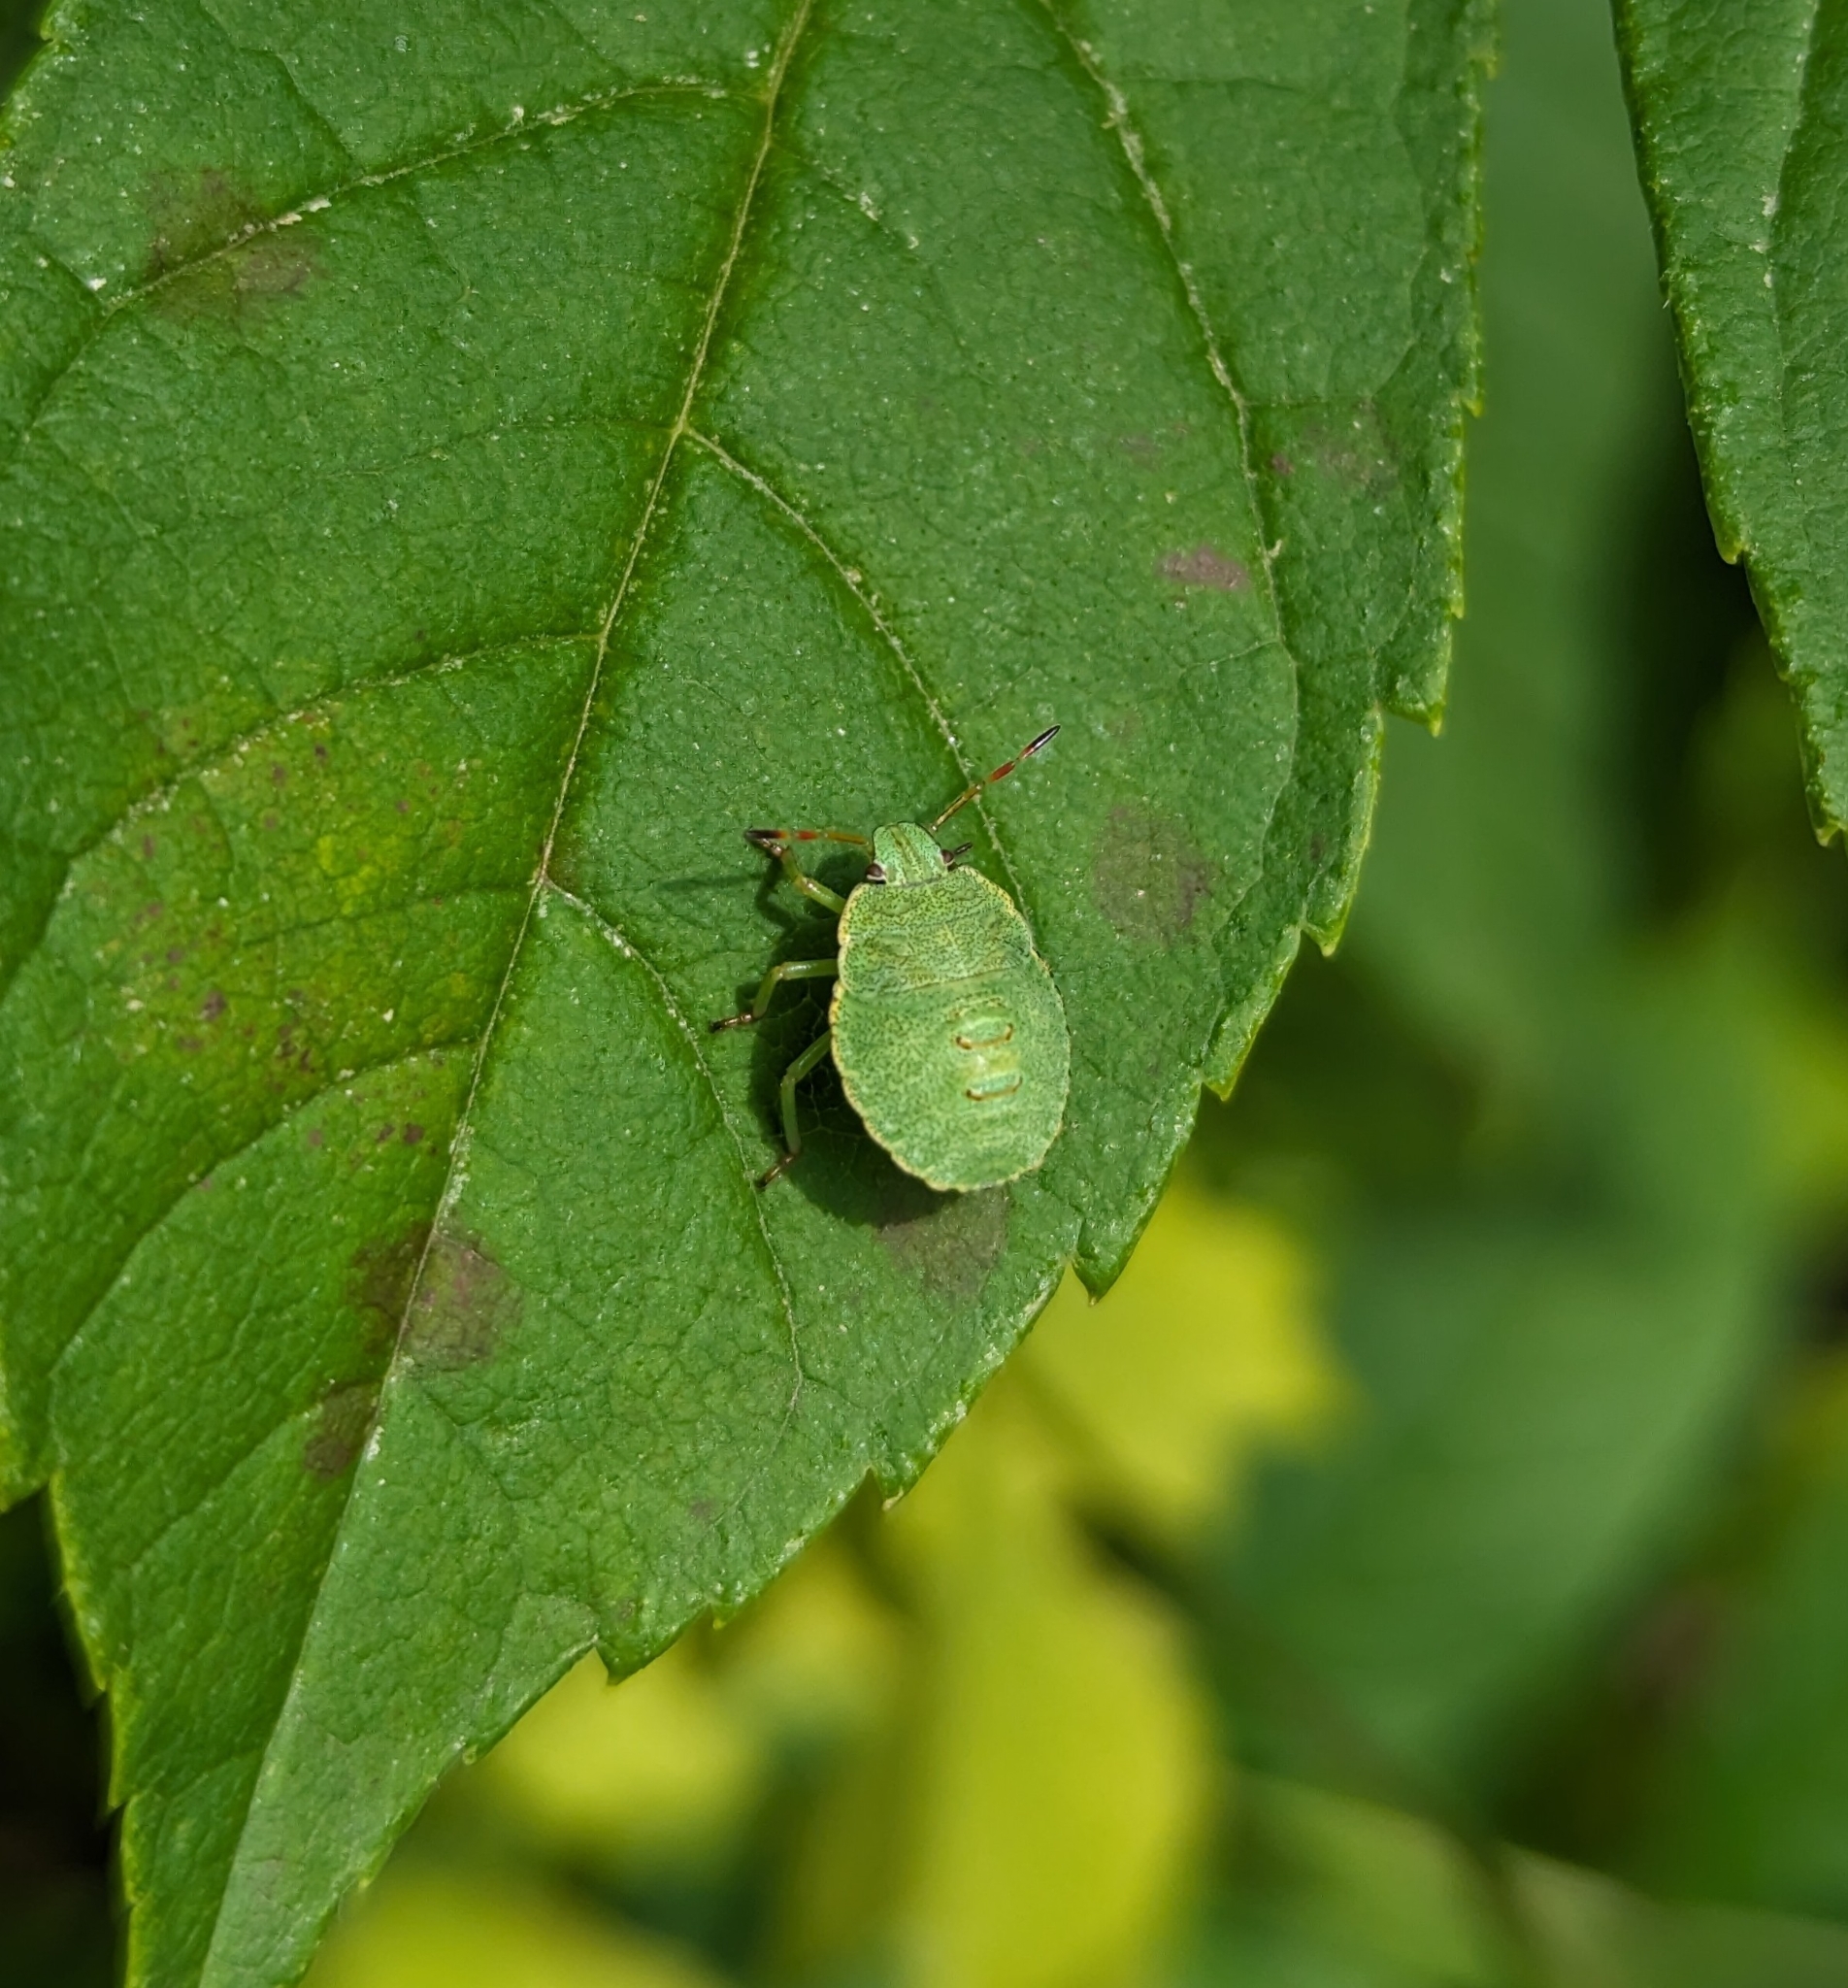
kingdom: Animalia
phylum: Arthropoda
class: Insecta
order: Hemiptera
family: Pentatomidae
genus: Palomena
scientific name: Palomena prasina
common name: Green shieldbug
